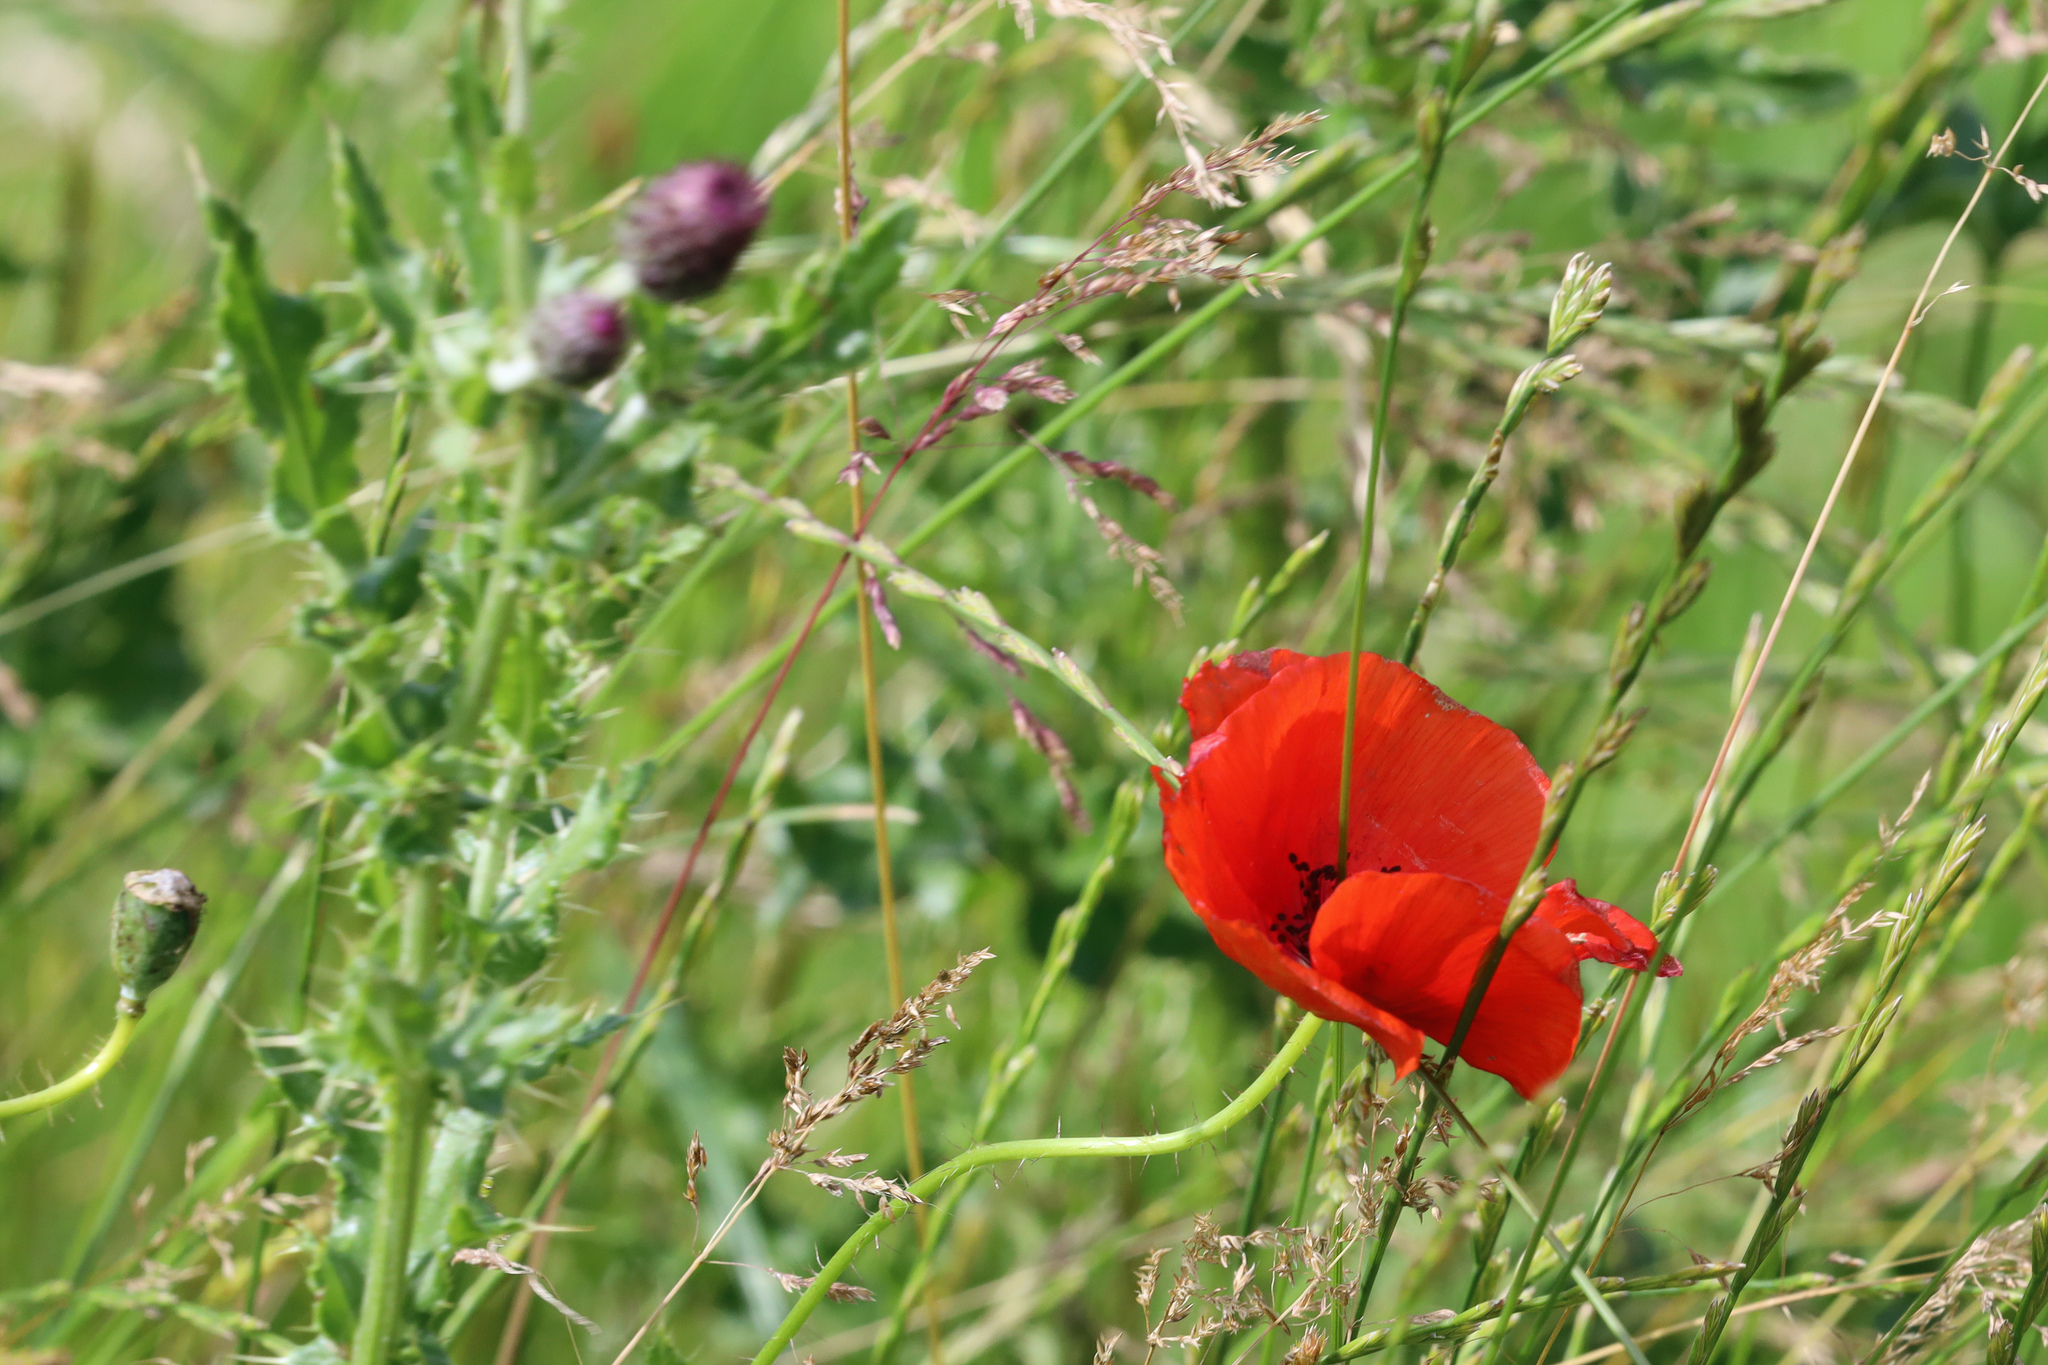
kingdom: Plantae
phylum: Tracheophyta
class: Magnoliopsida
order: Ranunculales
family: Papaveraceae
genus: Papaver
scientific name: Papaver rhoeas
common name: Corn poppy
